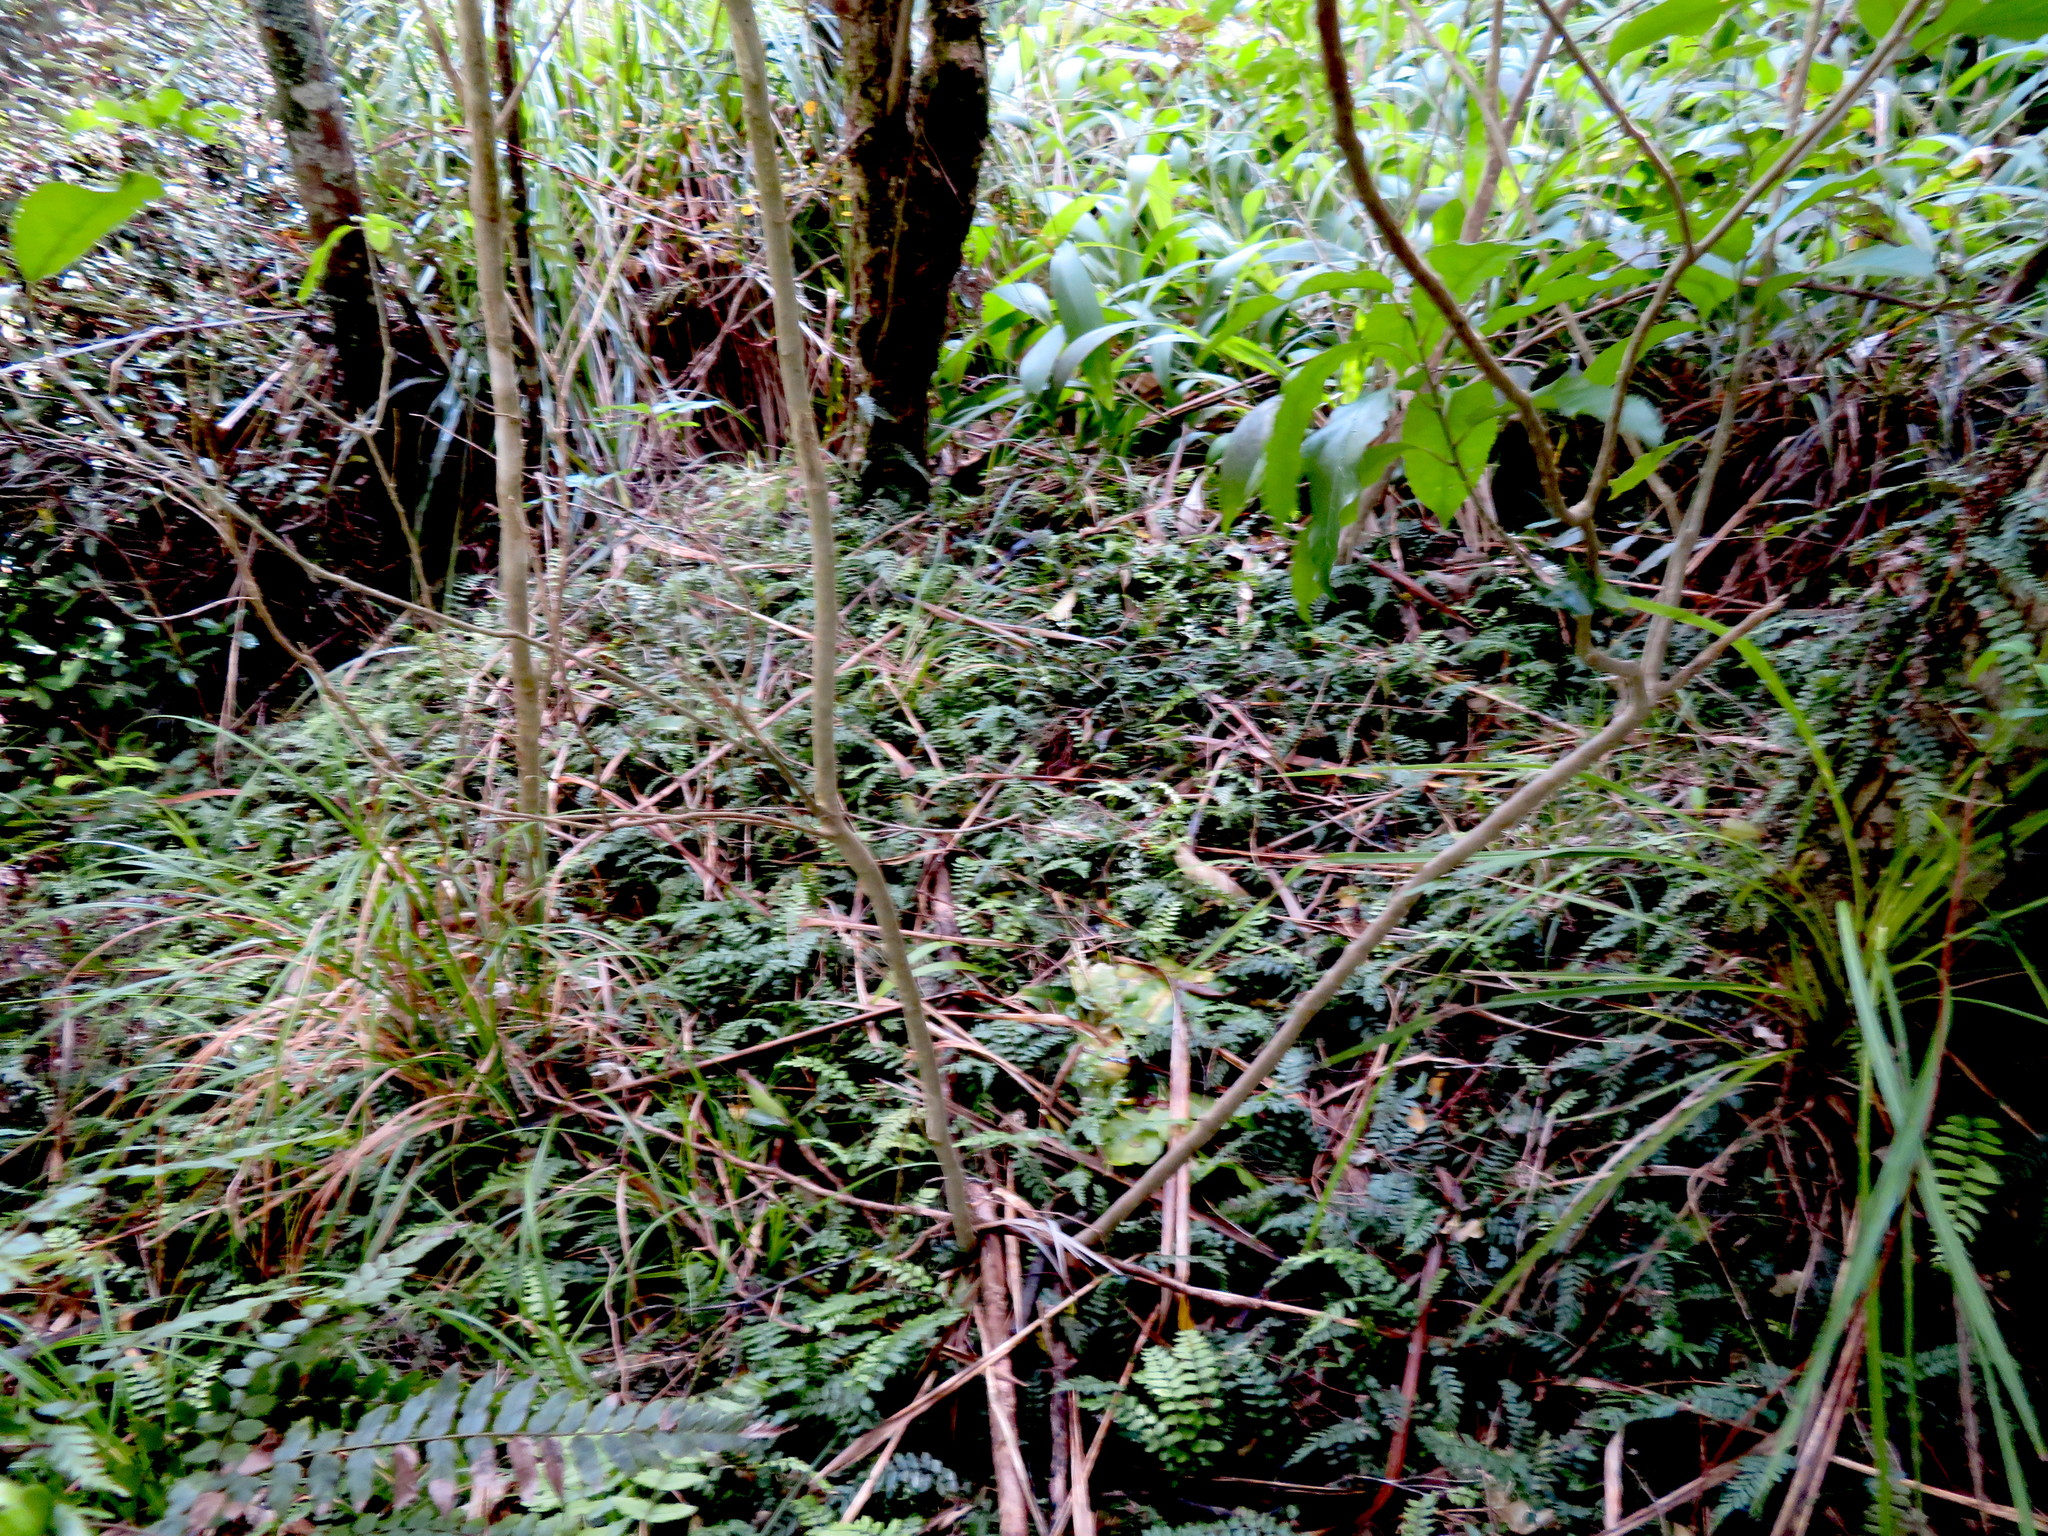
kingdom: Plantae
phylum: Tracheophyta
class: Polypodiopsida
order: Polypodiales
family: Blechnaceae
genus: Icarus
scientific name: Icarus filiformis
